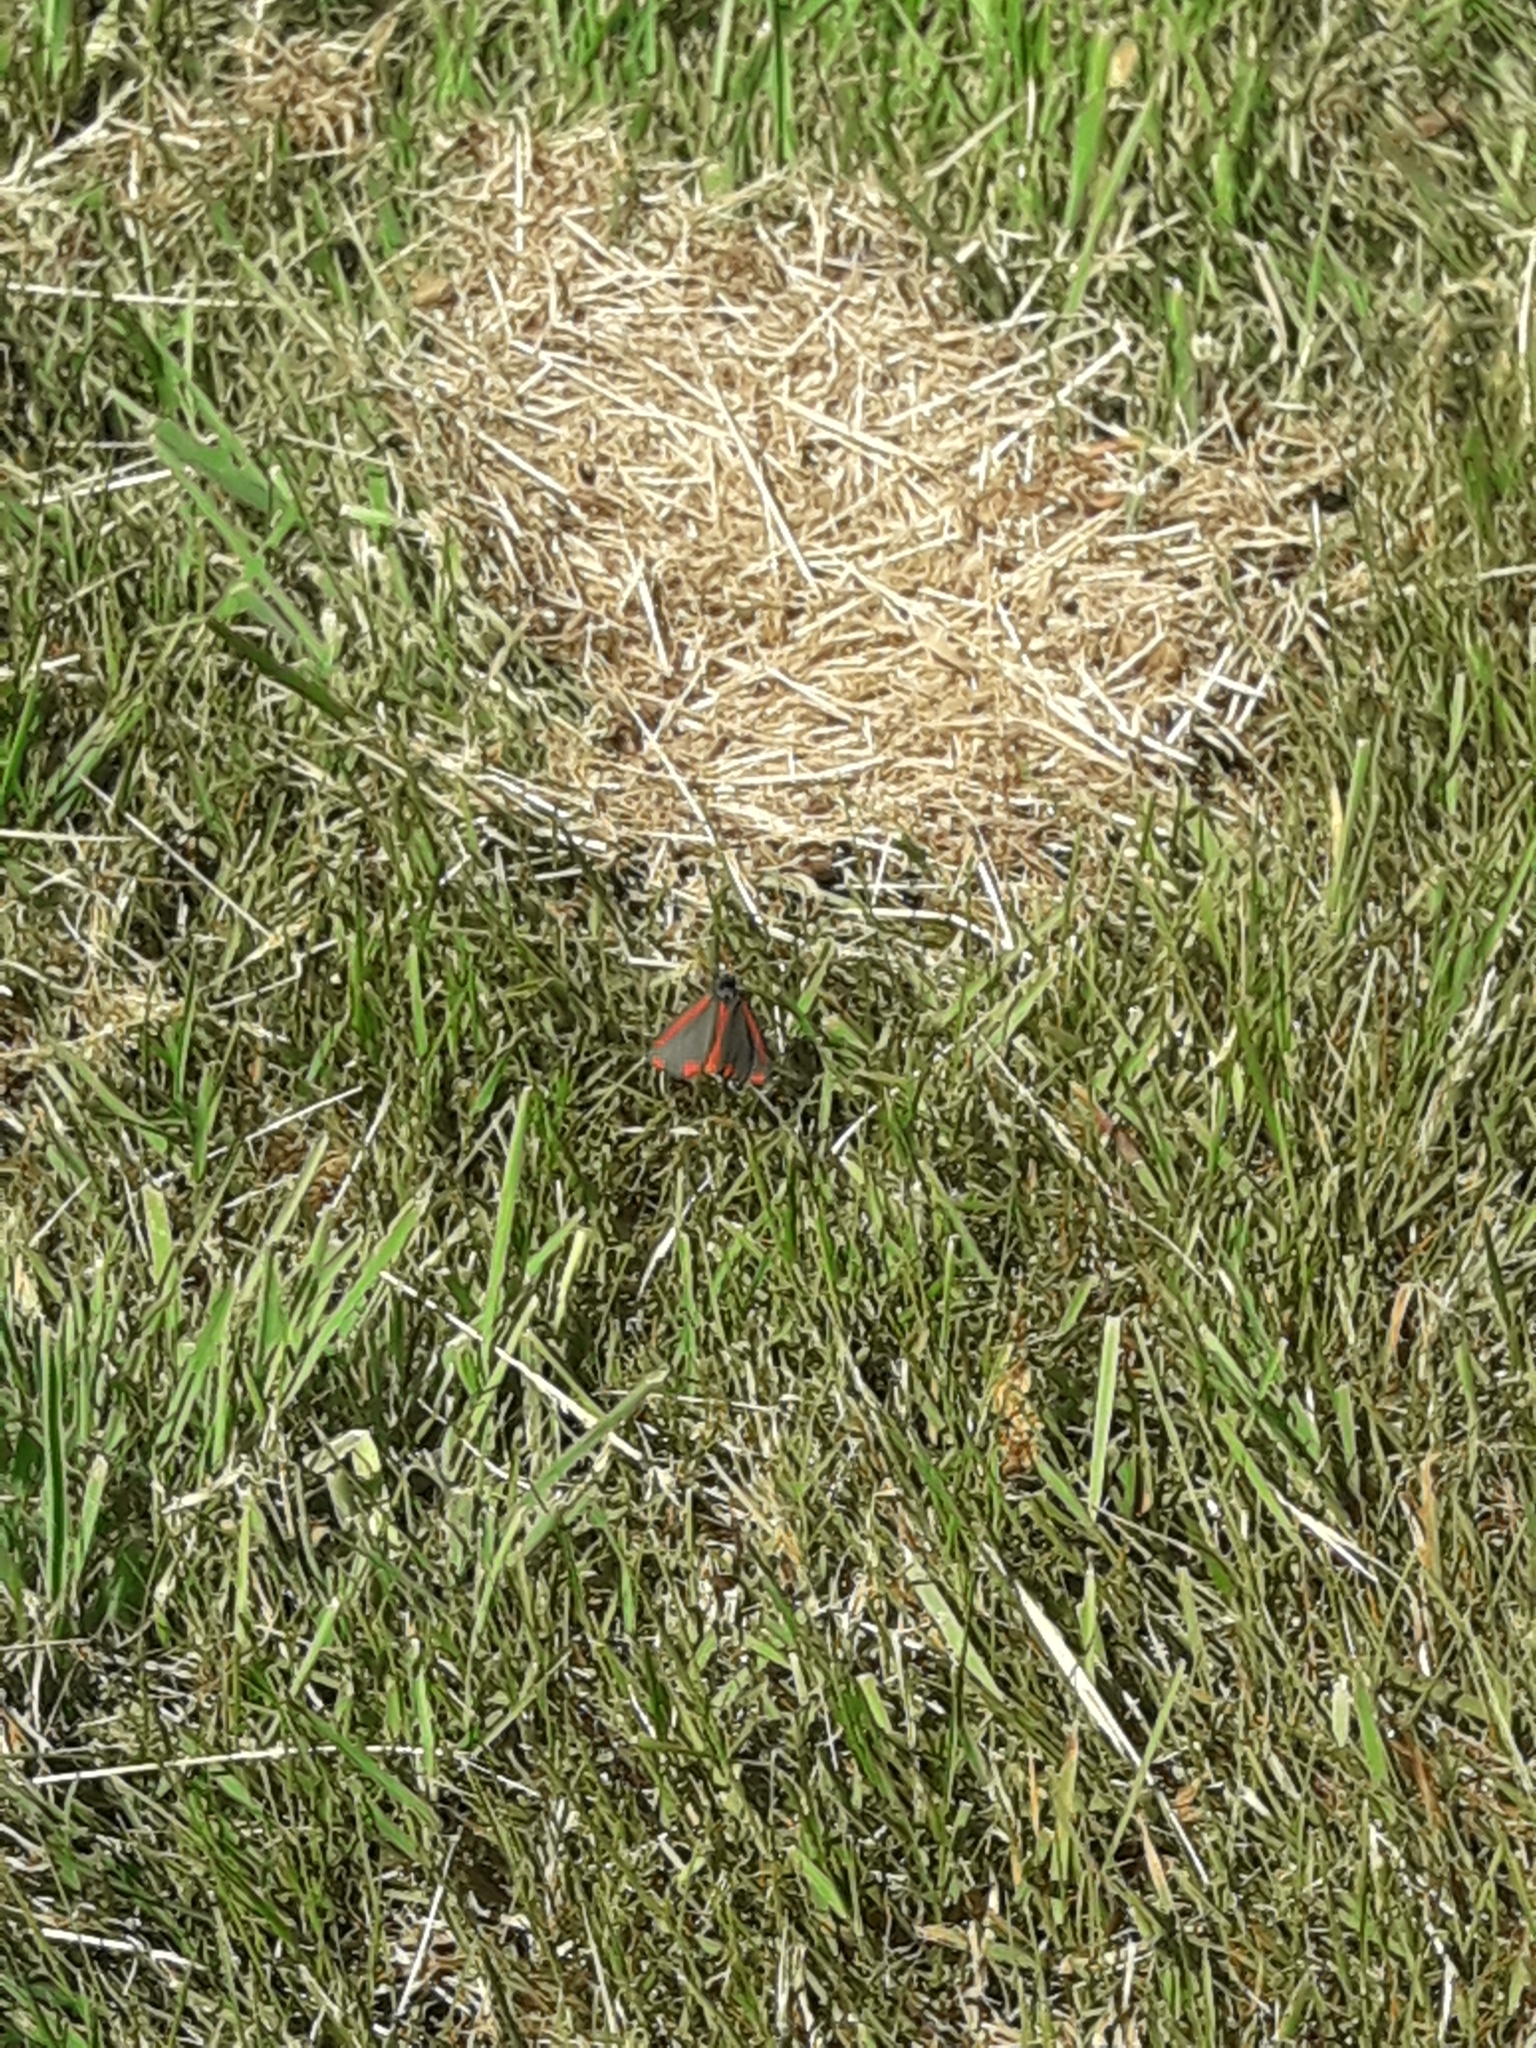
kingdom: Animalia
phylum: Arthropoda
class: Insecta
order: Lepidoptera
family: Erebidae
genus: Tyria
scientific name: Tyria jacobaeae
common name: Cinnabar
